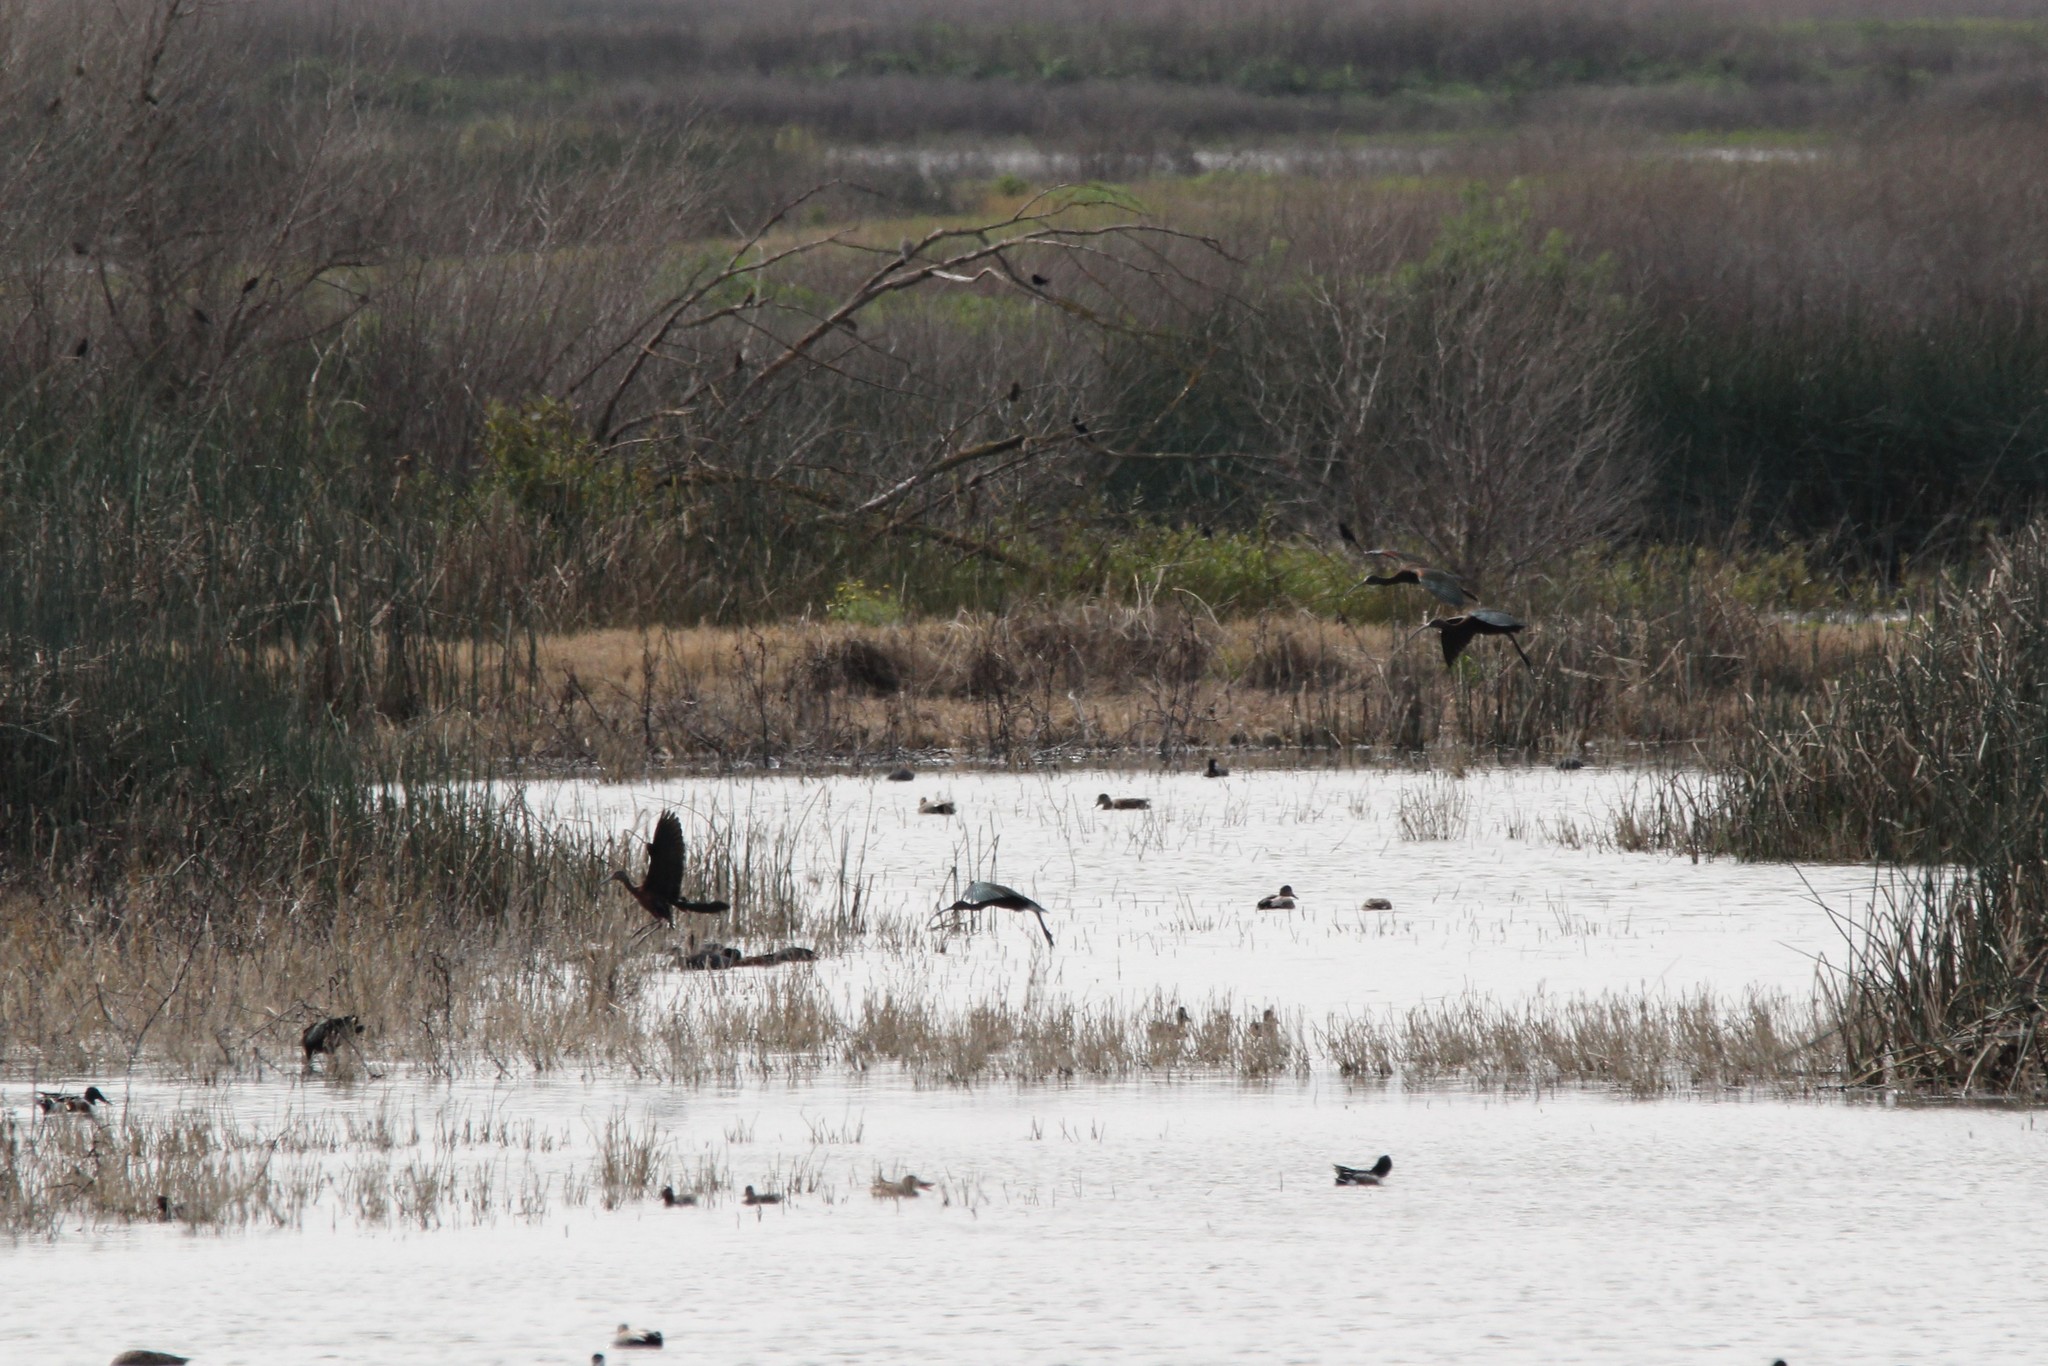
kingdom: Animalia
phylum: Chordata
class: Aves
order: Pelecaniformes
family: Threskiornithidae
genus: Plegadis
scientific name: Plegadis chihi
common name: White-faced ibis
